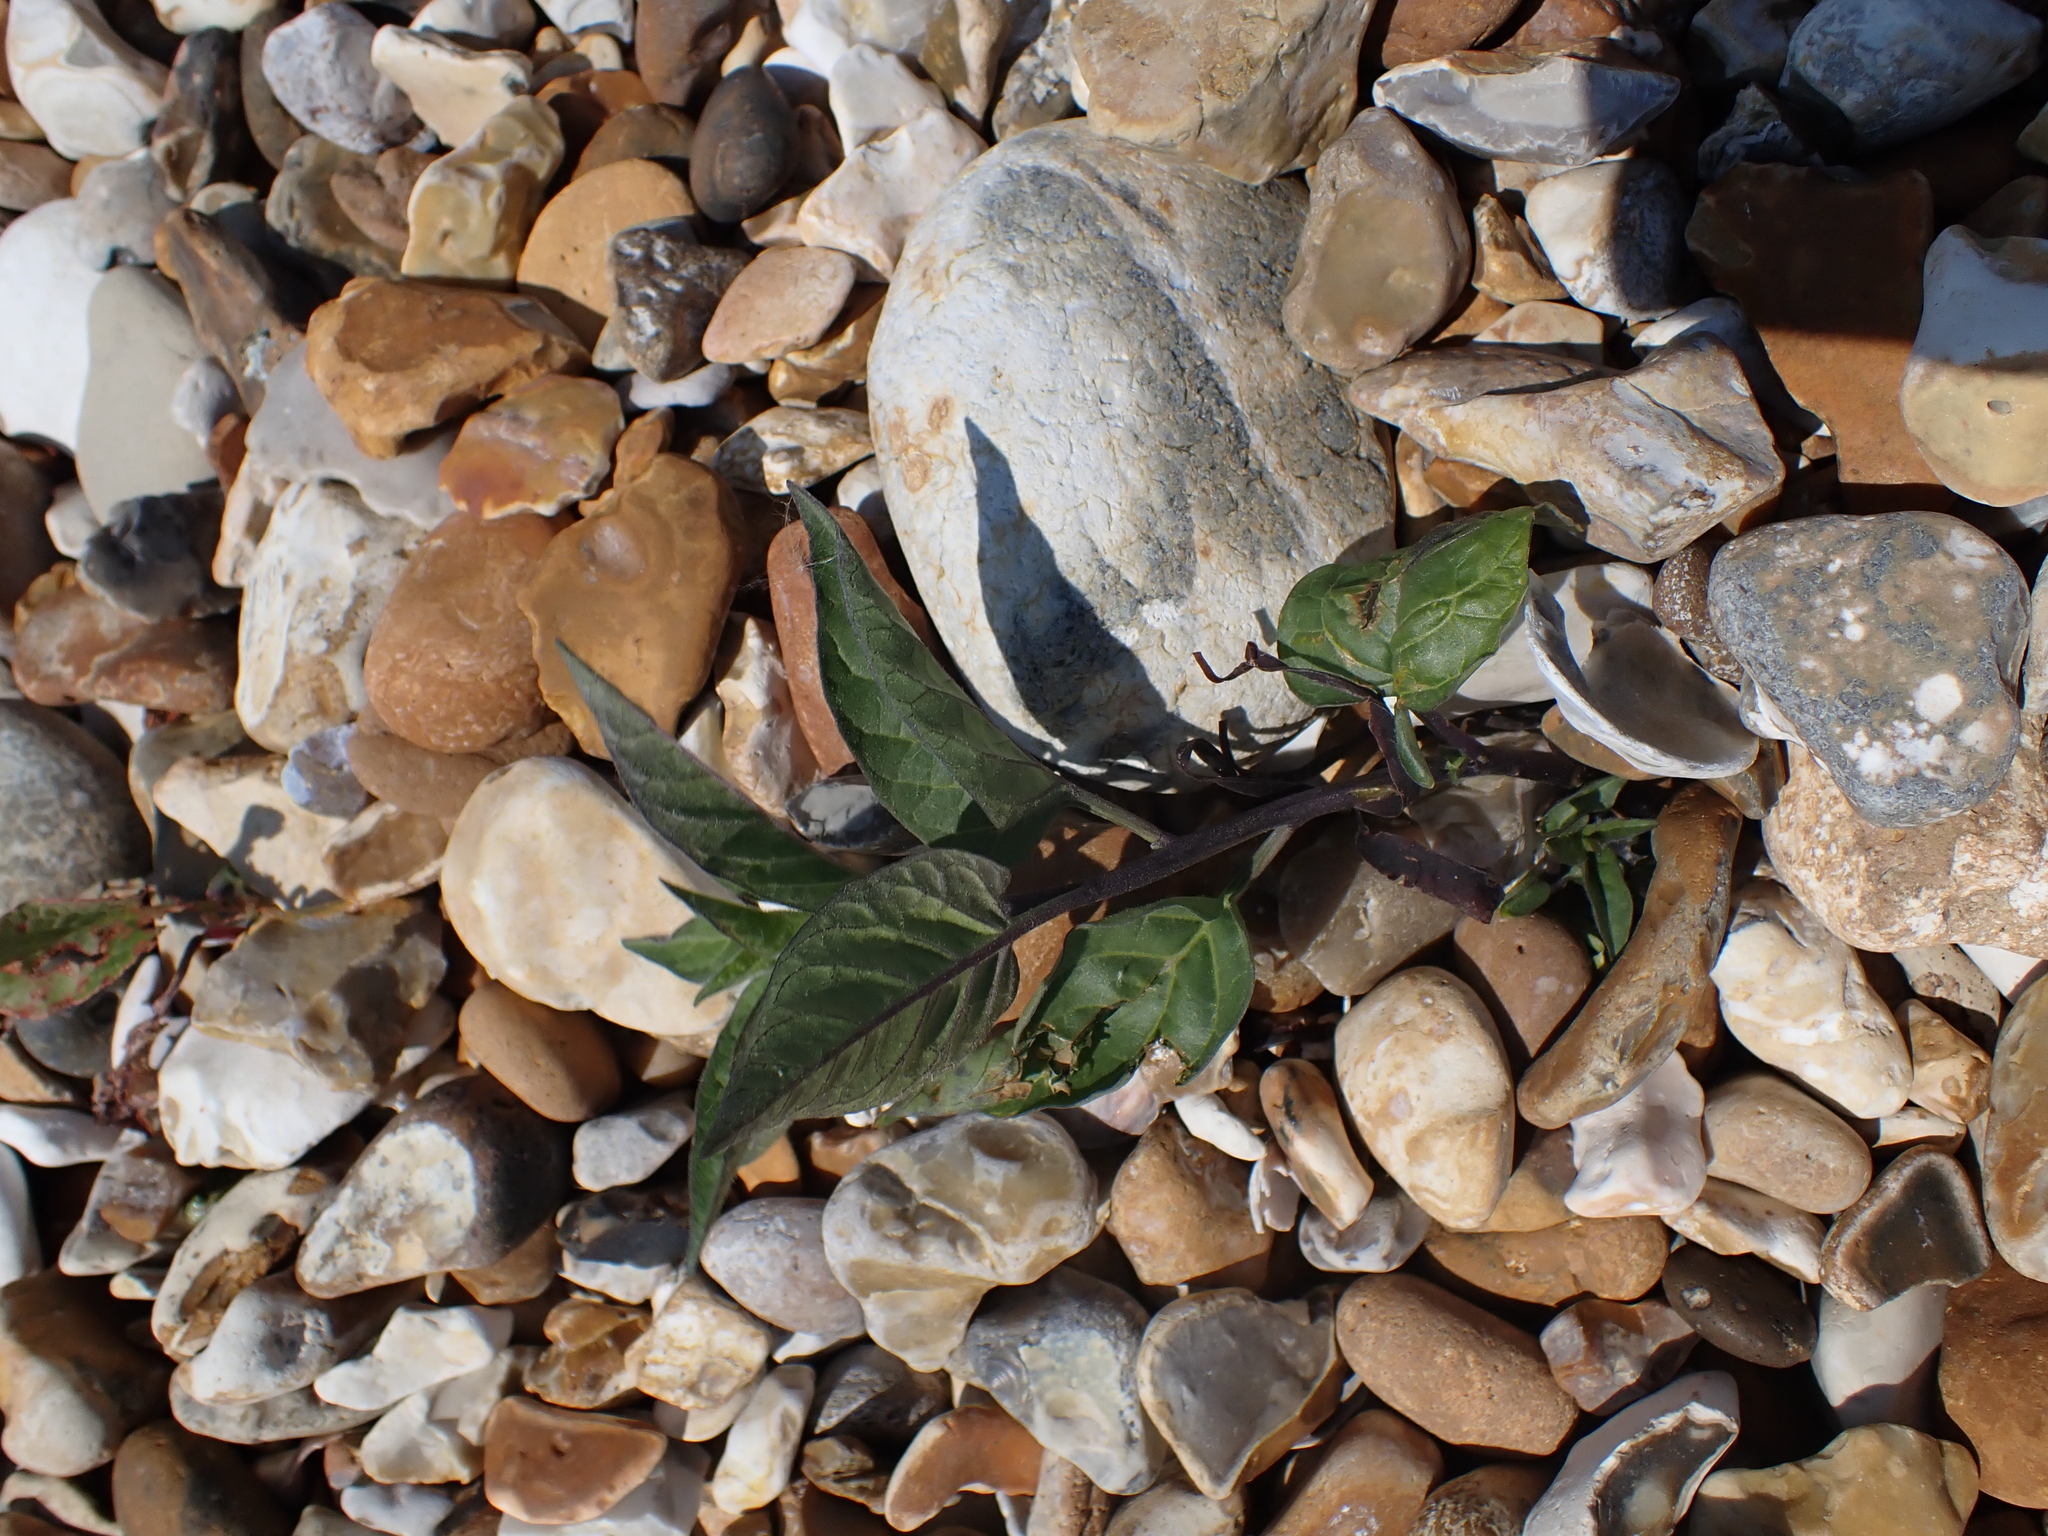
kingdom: Plantae
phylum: Tracheophyta
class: Magnoliopsida
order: Solanales
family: Solanaceae
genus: Solanum
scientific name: Solanum dulcamara
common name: Climbing nightshade
